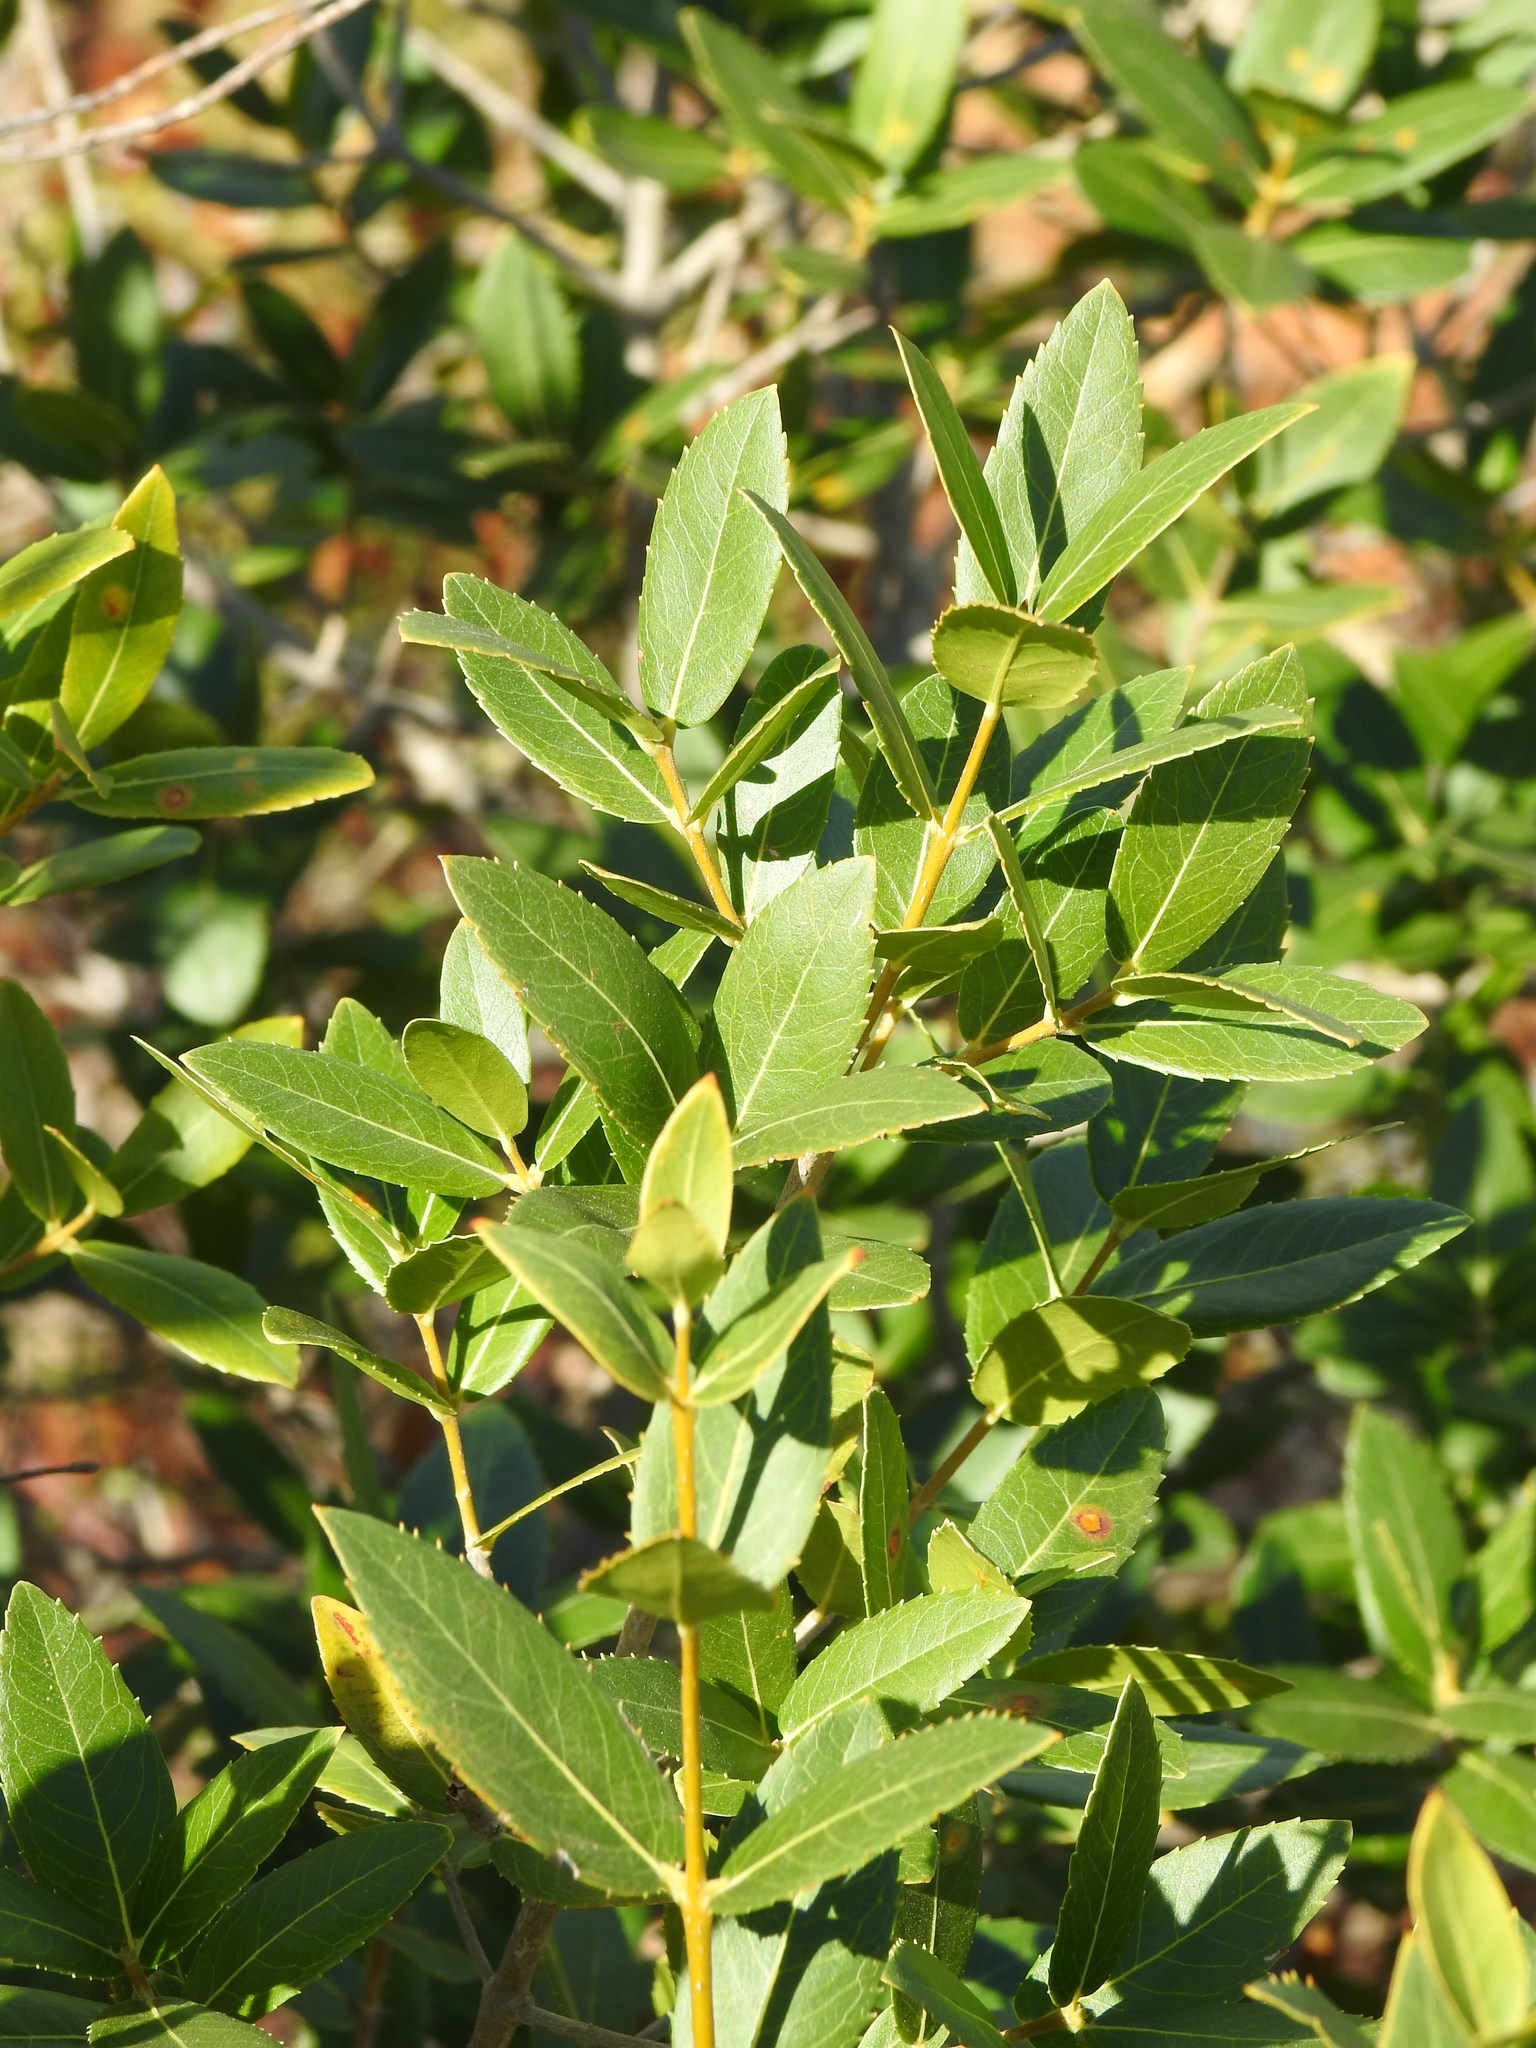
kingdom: Plantae
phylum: Tracheophyta
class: Magnoliopsida
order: Lamiales
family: Oleaceae
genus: Phillyrea
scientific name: Phillyrea latifolia
